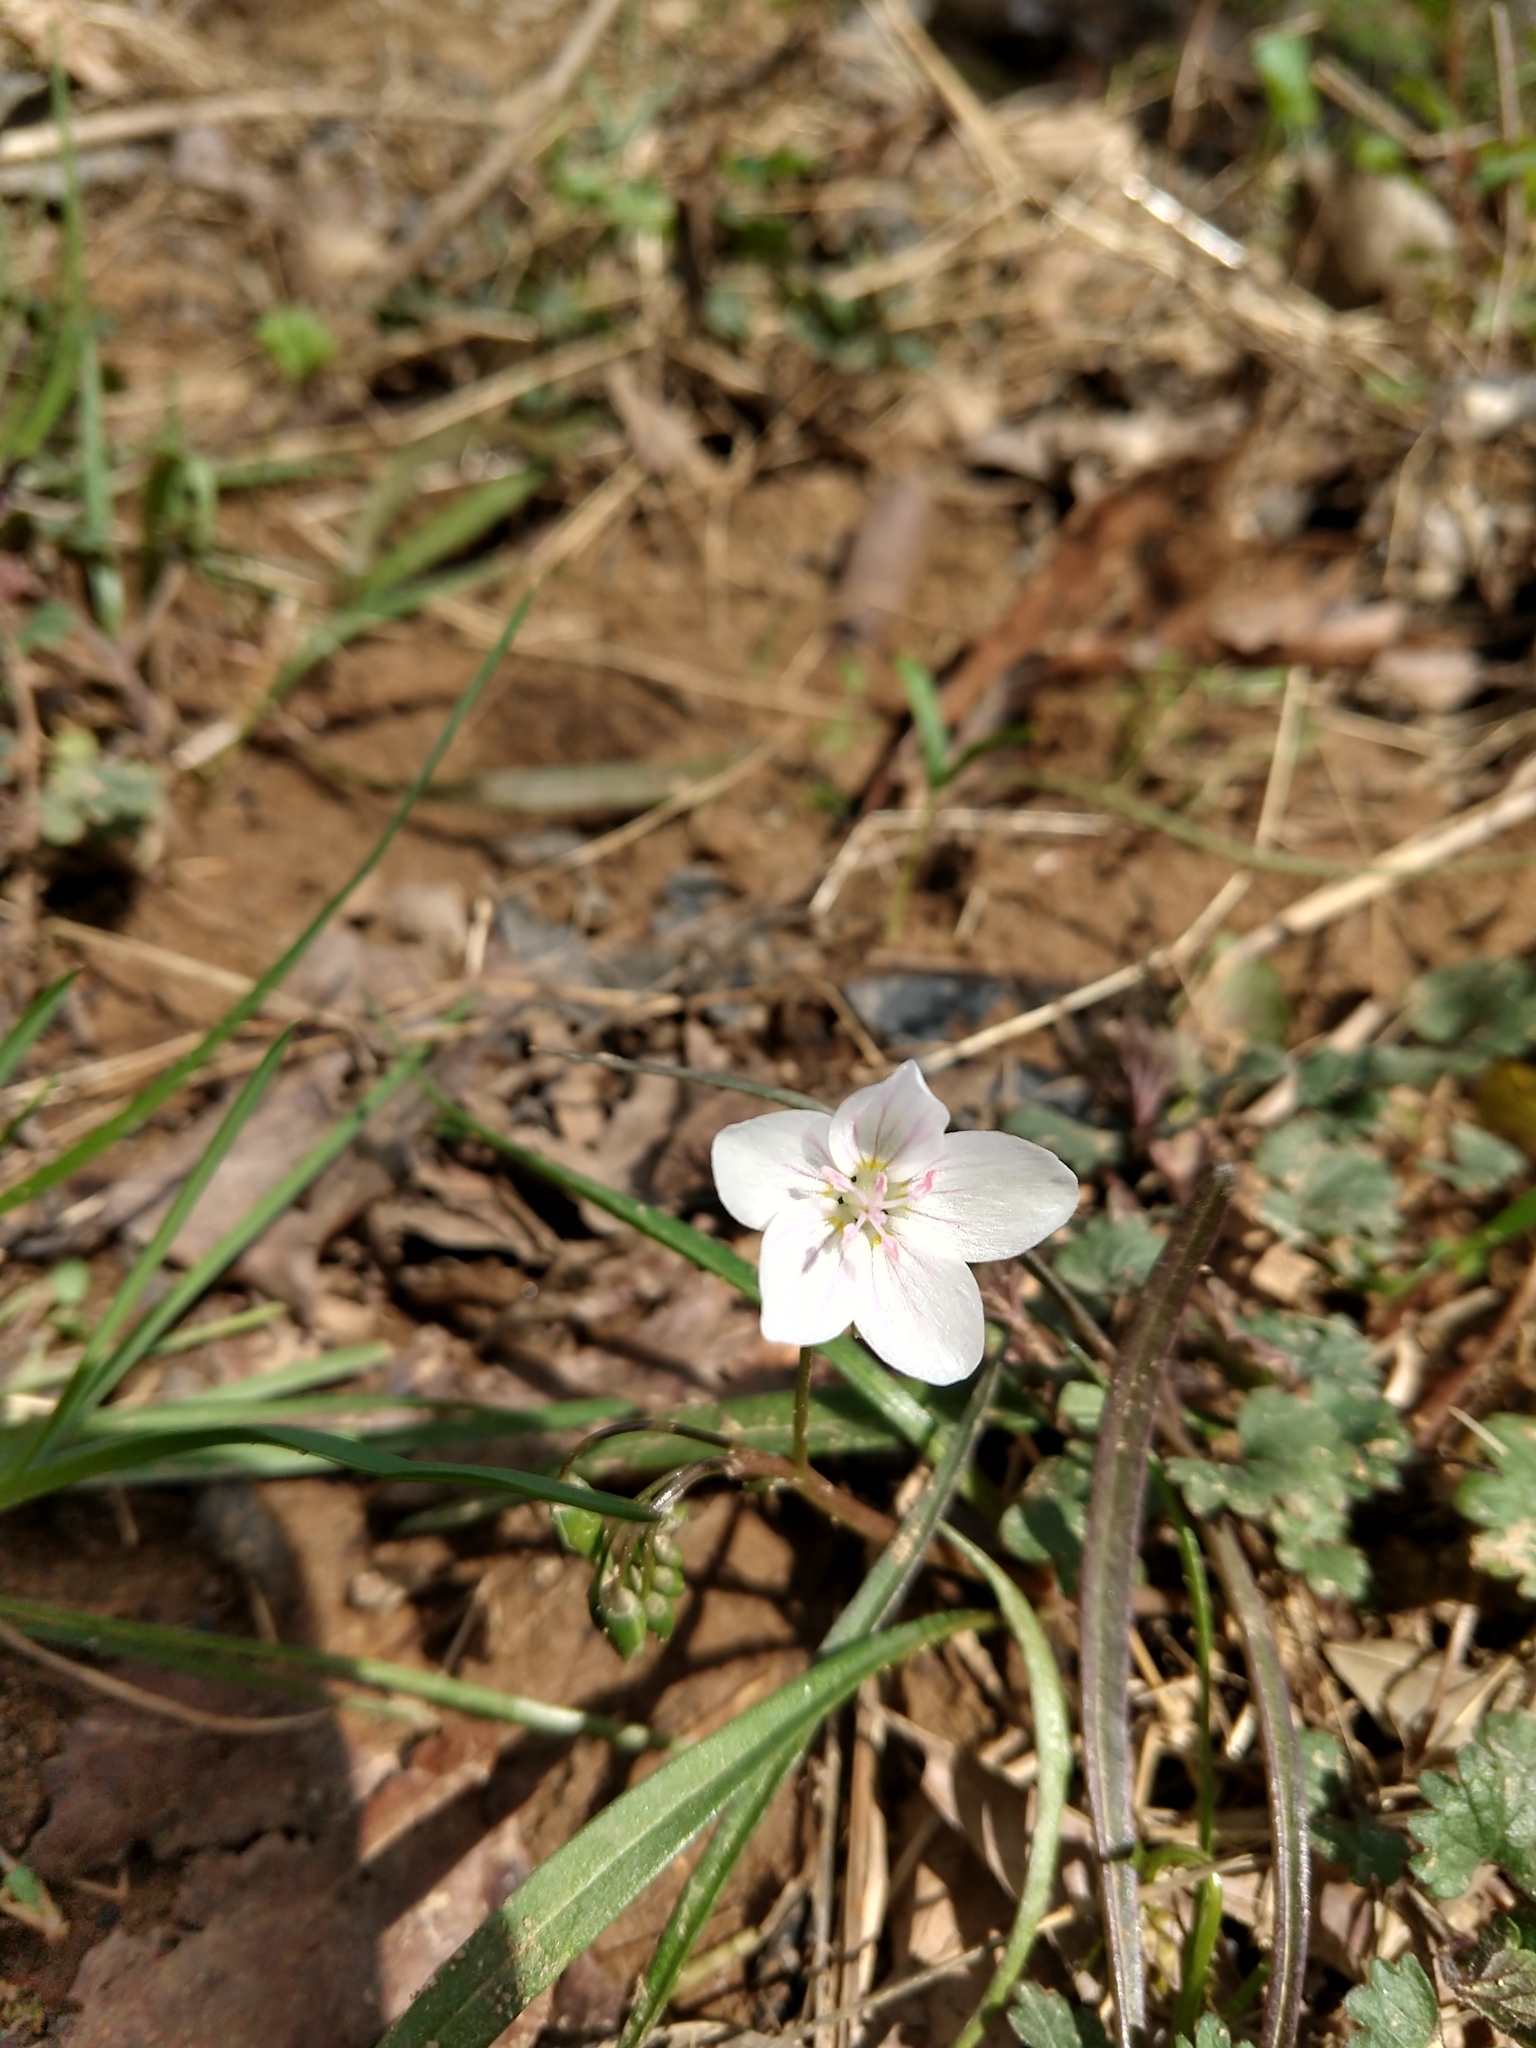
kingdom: Plantae
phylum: Tracheophyta
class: Magnoliopsida
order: Caryophyllales
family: Montiaceae
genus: Claytonia
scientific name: Claytonia virginica
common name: Virginia springbeauty
